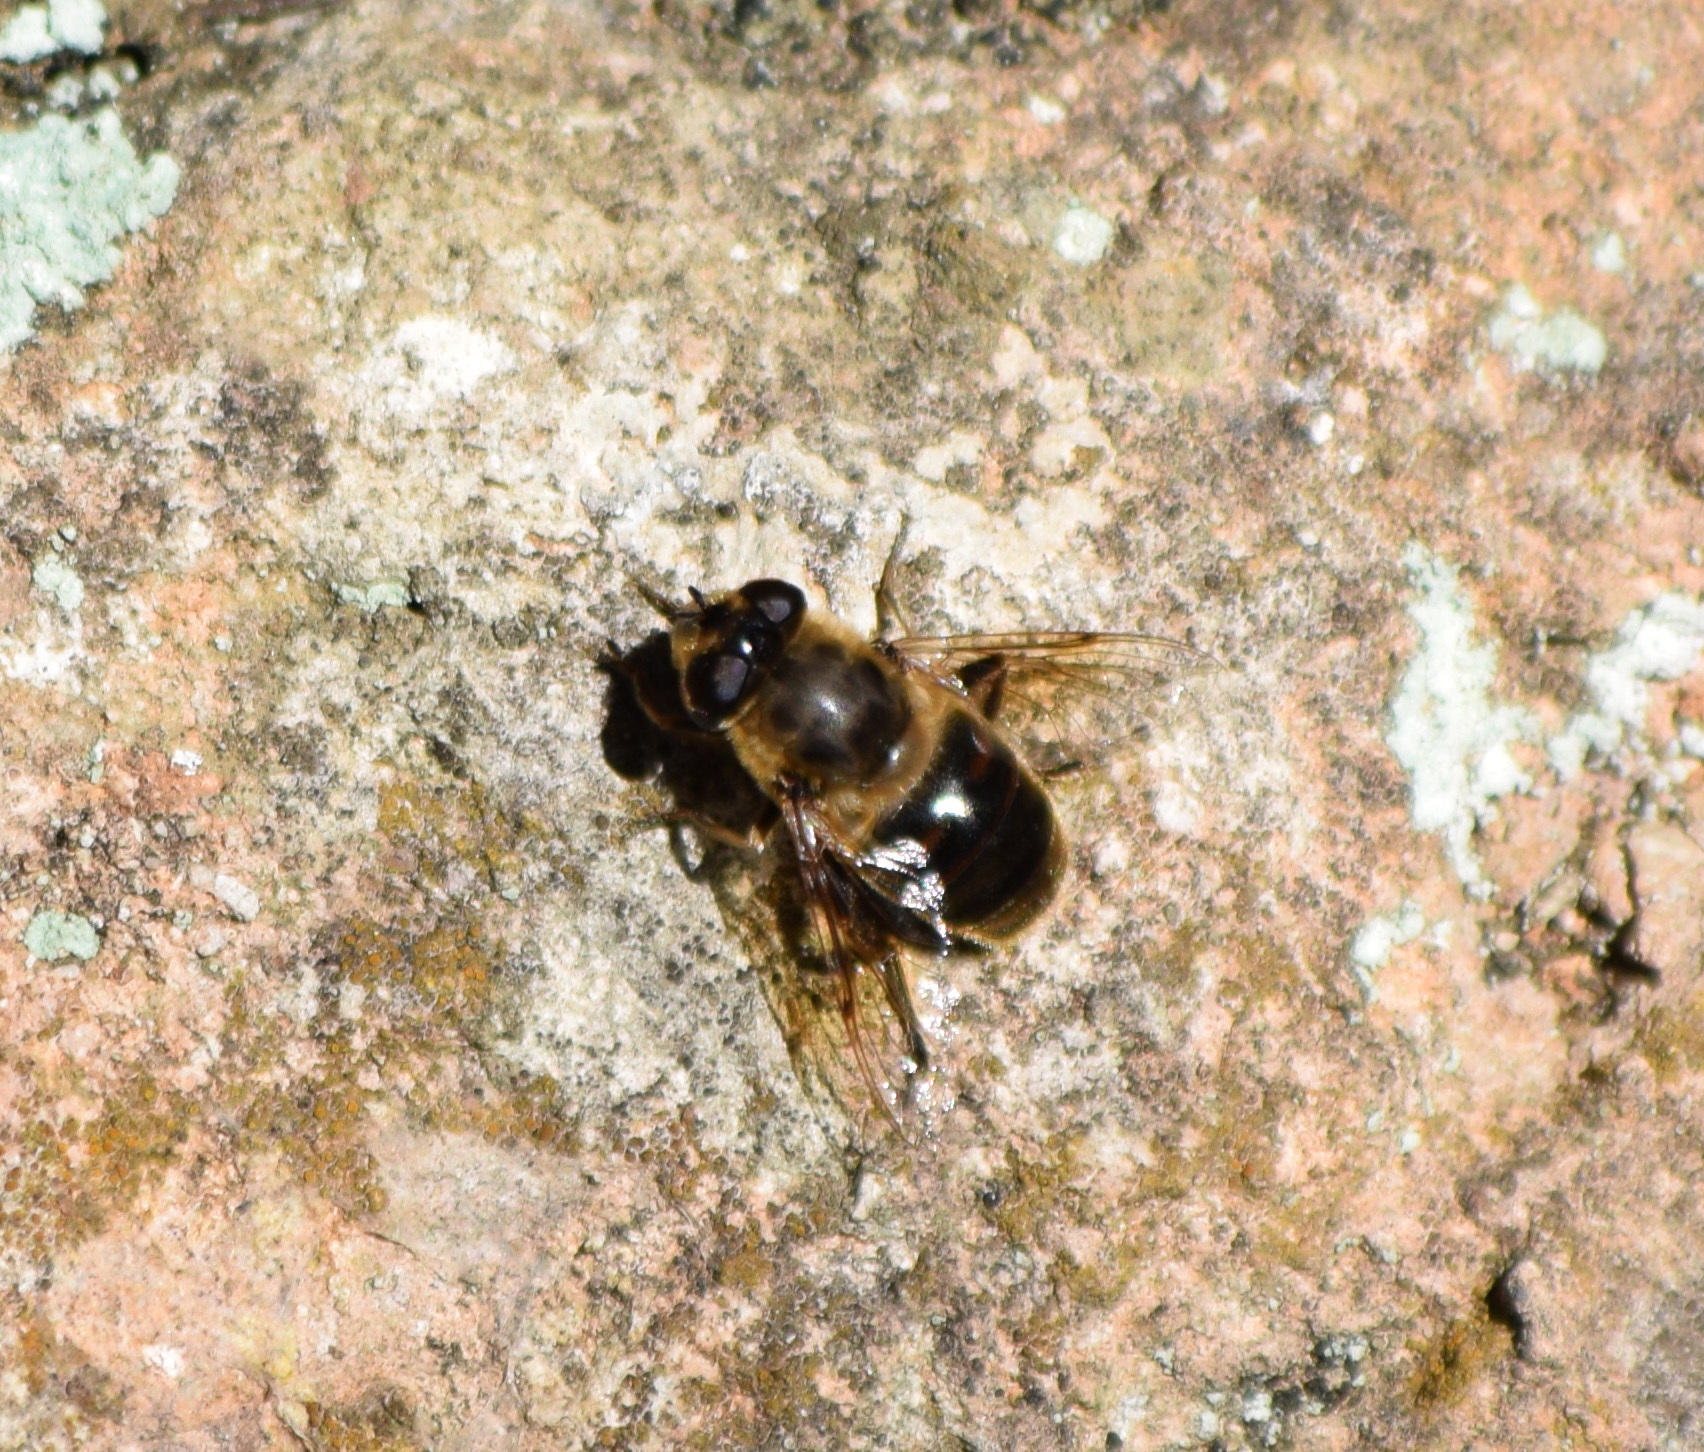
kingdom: Animalia
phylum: Arthropoda
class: Insecta
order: Diptera
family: Syrphidae
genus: Eristalis
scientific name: Eristalis tenax
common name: Drone fly
